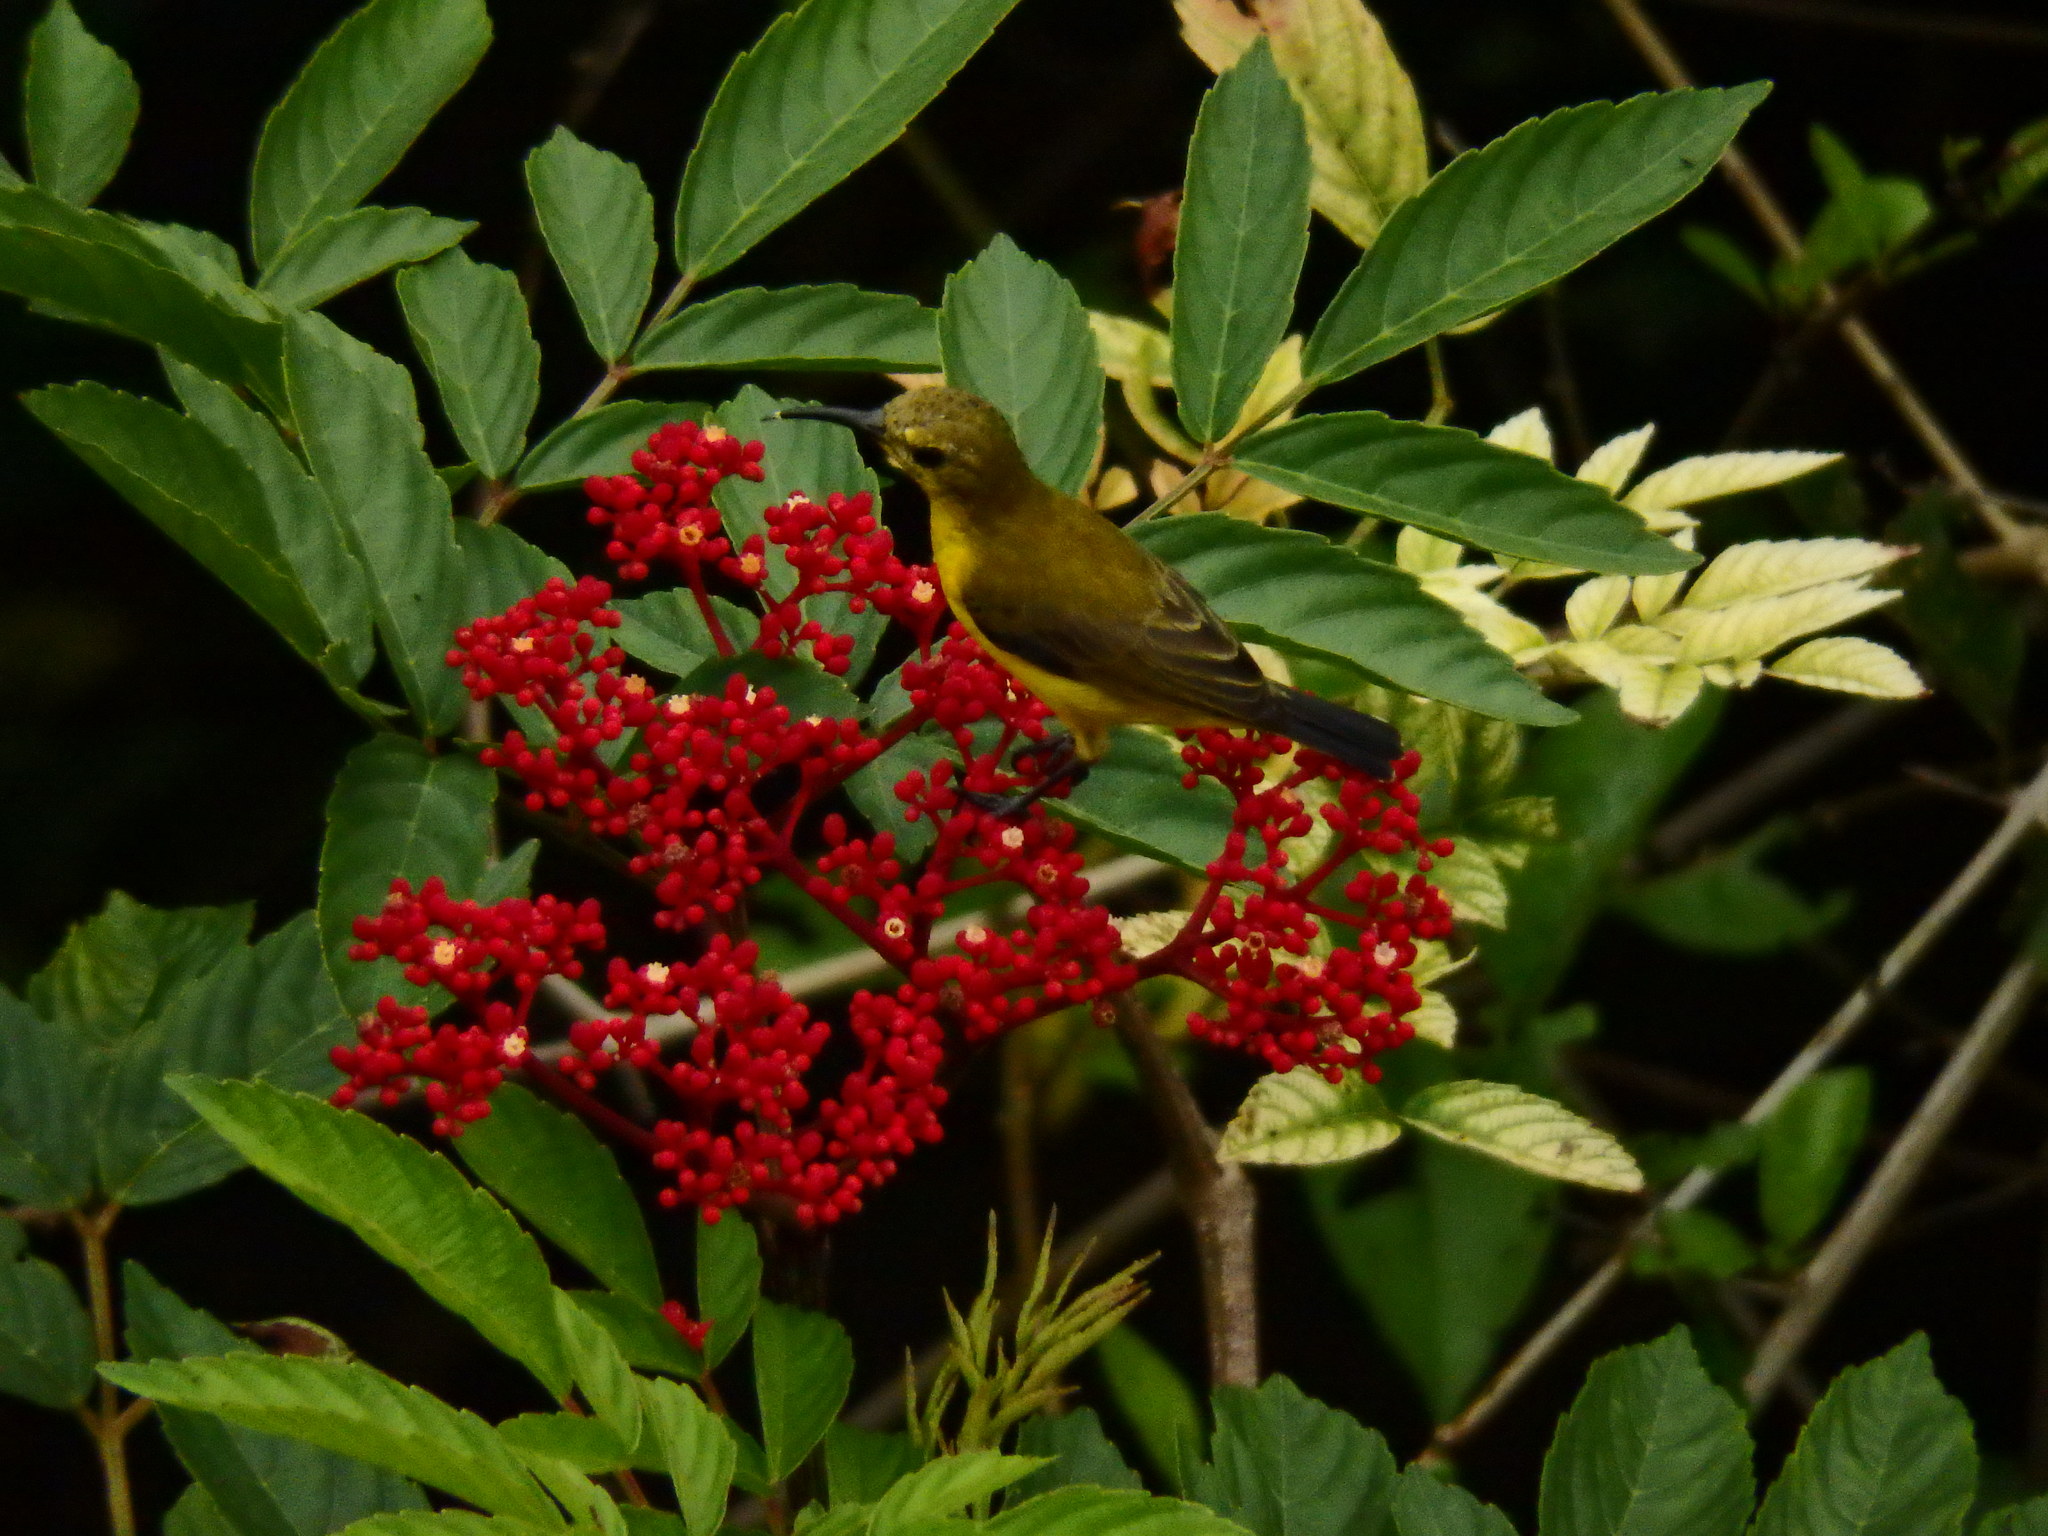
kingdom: Animalia
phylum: Chordata
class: Aves
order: Passeriformes
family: Nectariniidae
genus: Cinnyris
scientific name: Cinnyris
